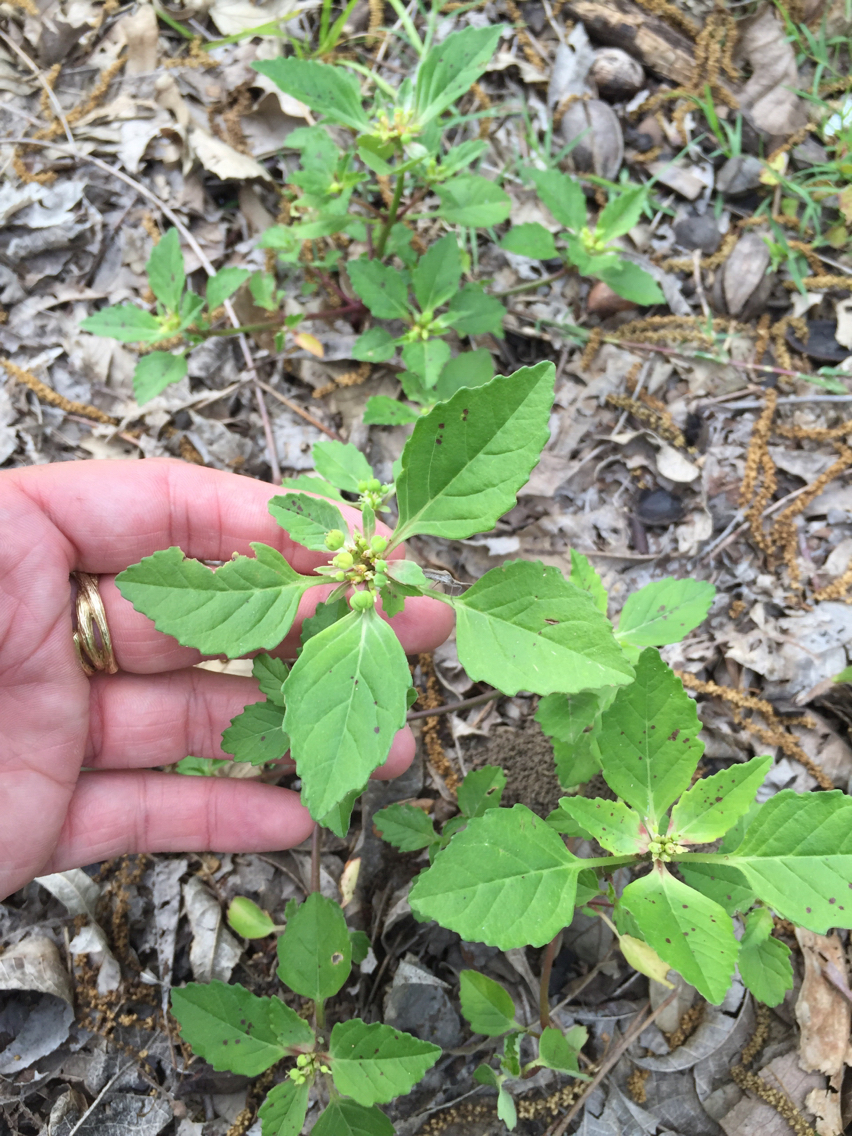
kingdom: Plantae
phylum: Tracheophyta
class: Magnoliopsida
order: Malpighiales
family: Euphorbiaceae
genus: Euphorbia
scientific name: Euphorbia dentata
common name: Dentate spurge
